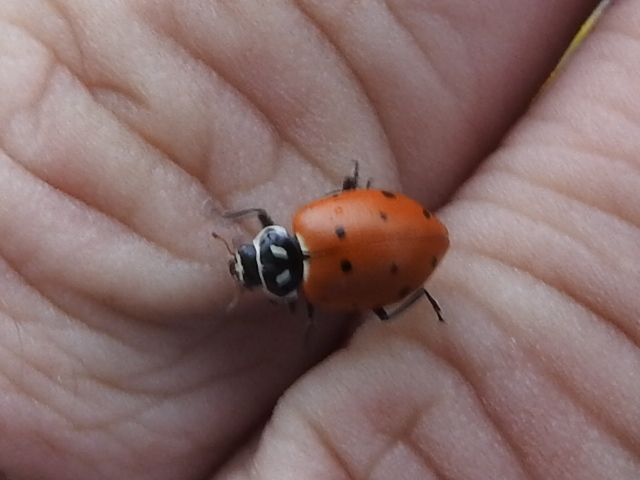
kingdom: Animalia
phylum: Arthropoda
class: Insecta
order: Coleoptera
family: Coccinellidae
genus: Hippodamia
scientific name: Hippodamia convergens
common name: Convergent lady beetle
